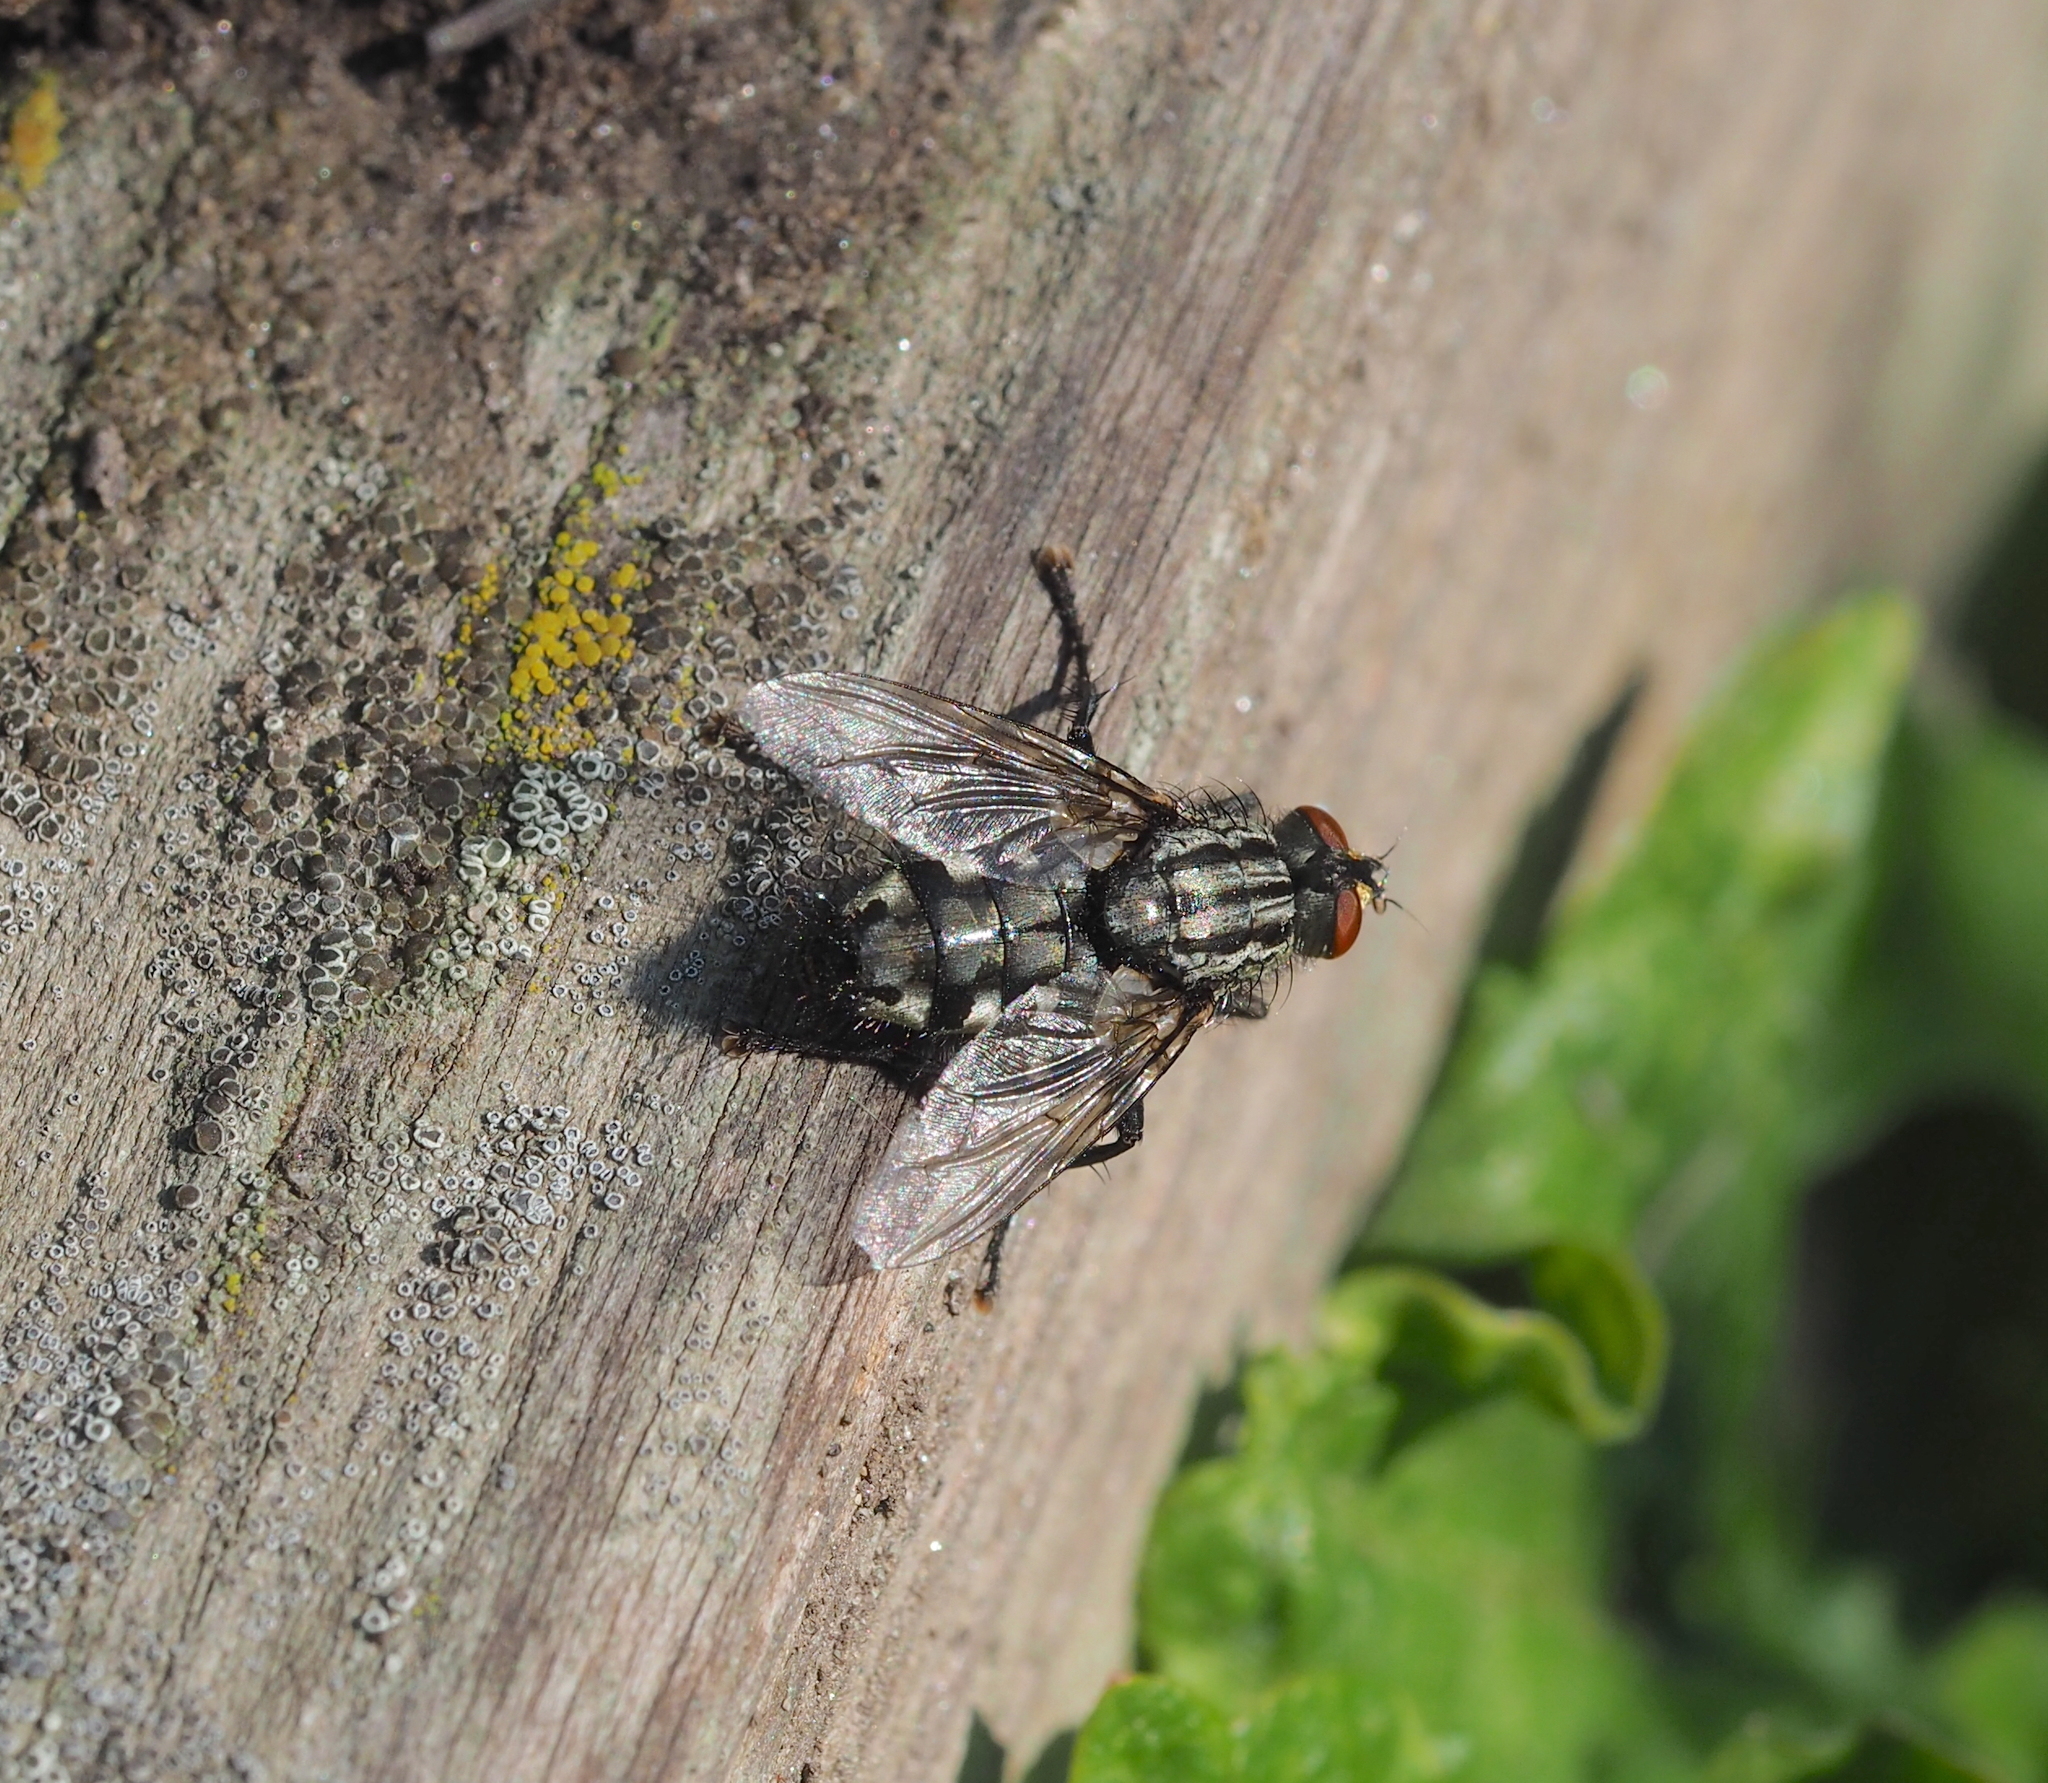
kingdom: Animalia
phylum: Arthropoda
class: Insecta
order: Diptera
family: Sarcophagidae
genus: Sarcophaga
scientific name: Sarcophaga variegata
